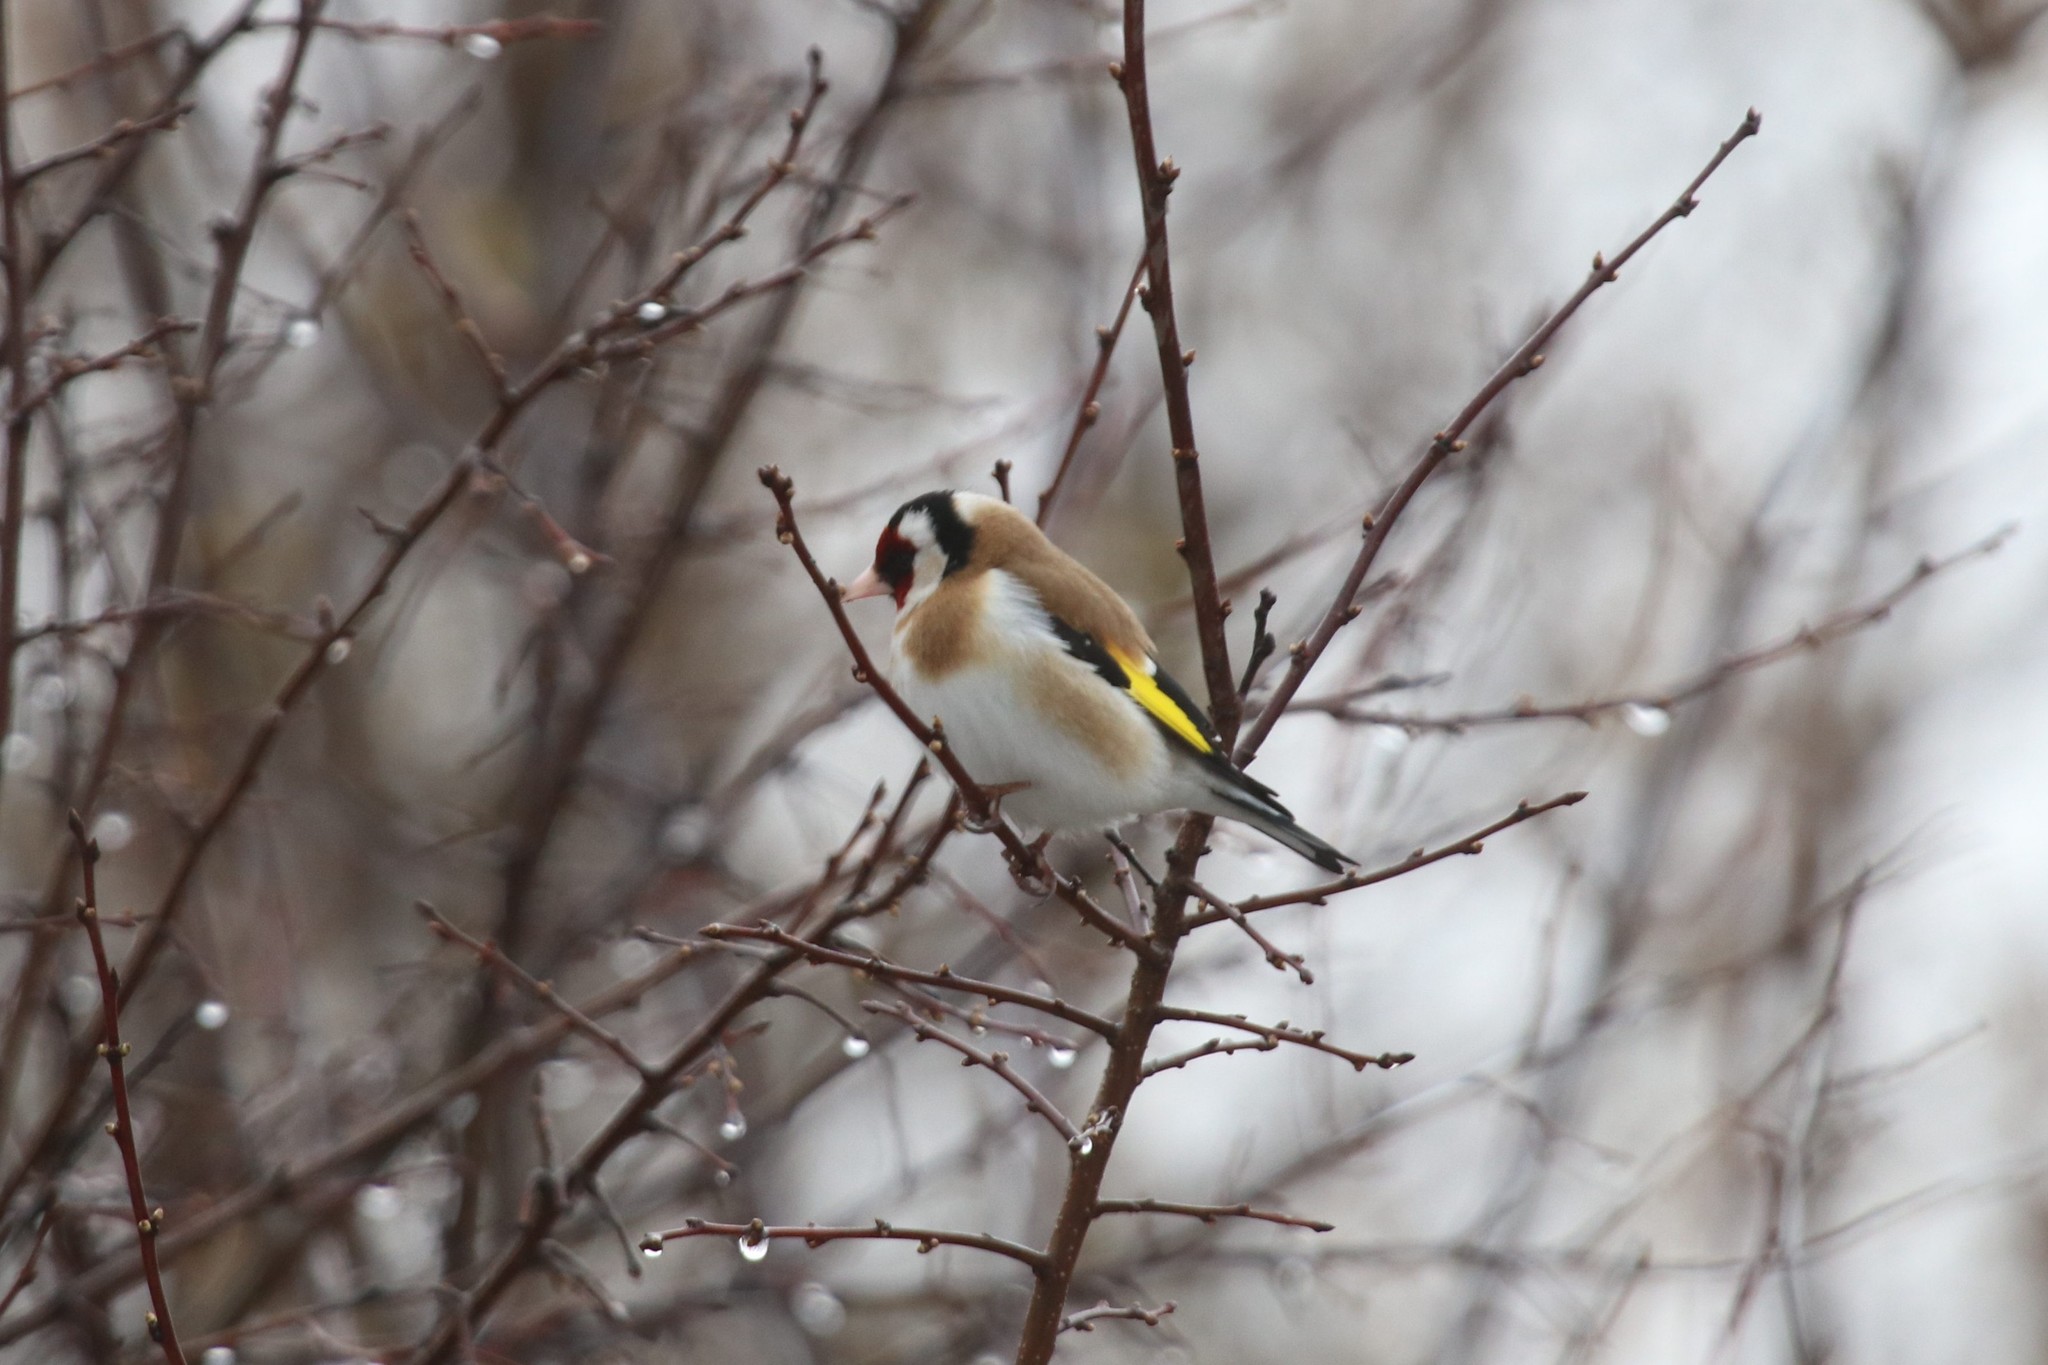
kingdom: Animalia
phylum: Chordata
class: Aves
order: Passeriformes
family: Fringillidae
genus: Carduelis
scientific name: Carduelis carduelis
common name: European goldfinch
